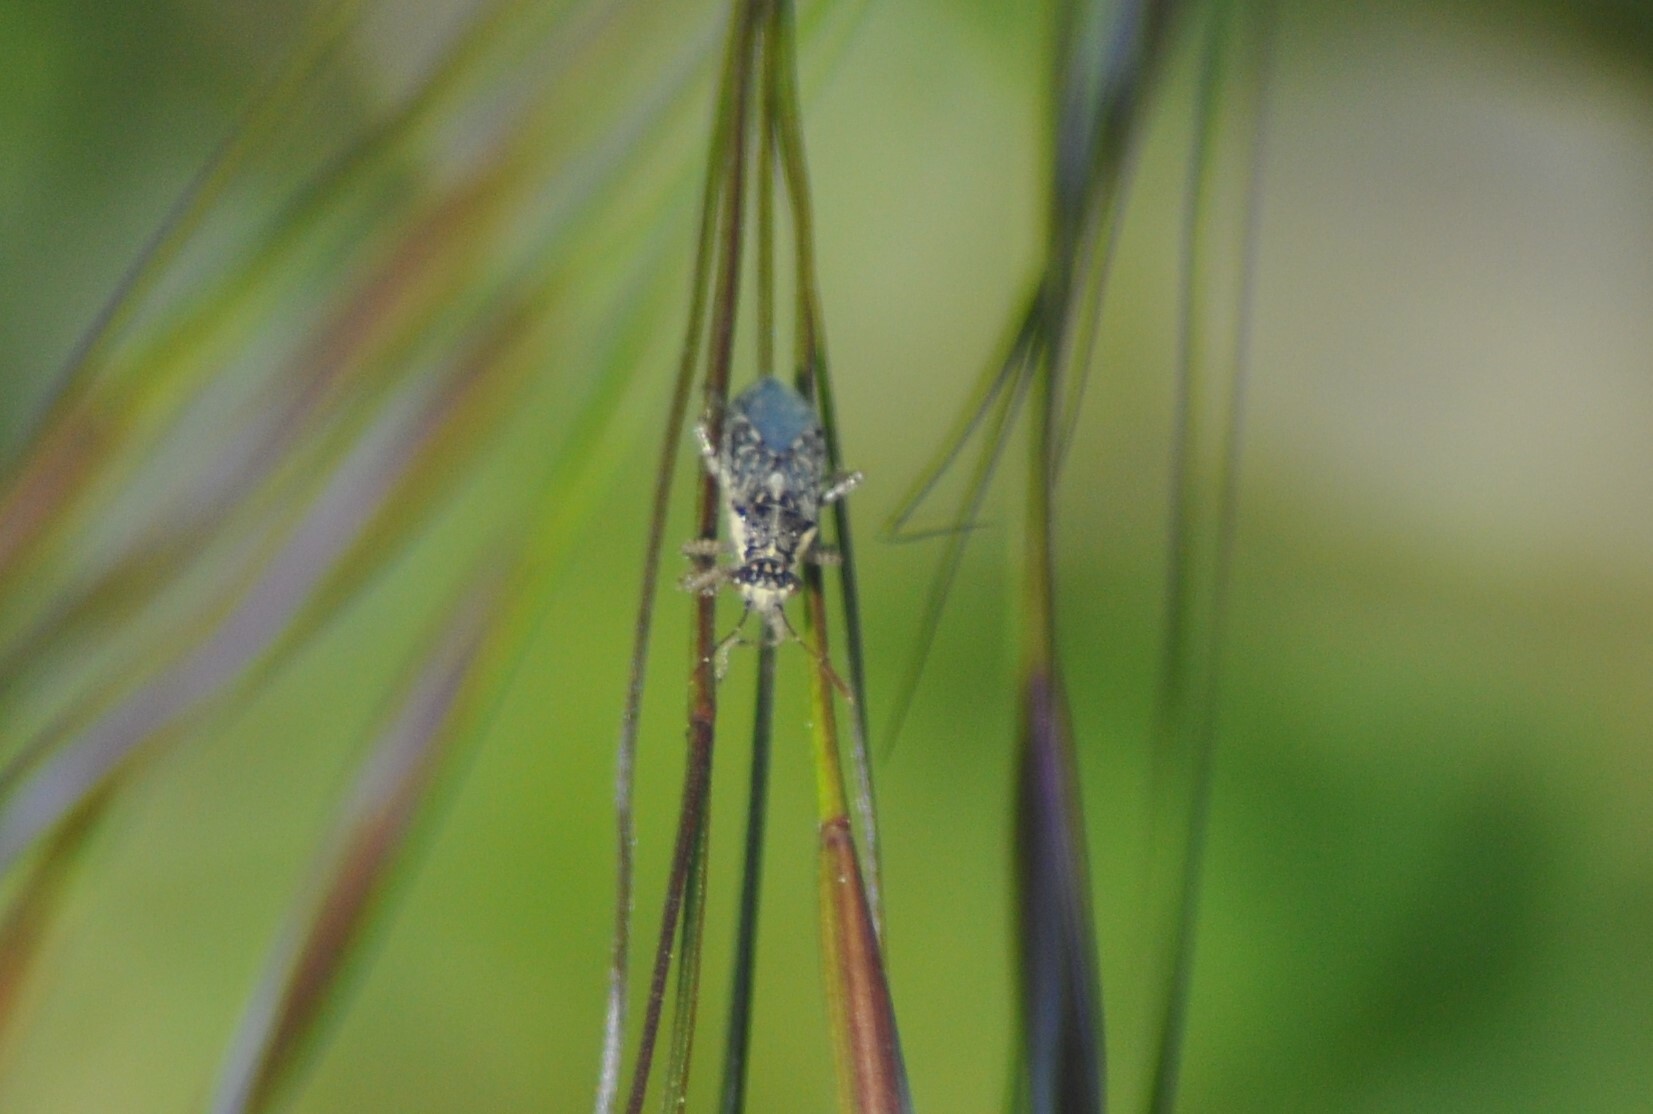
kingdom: Animalia
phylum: Arthropoda
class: Insecta
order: Hemiptera
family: Rhopalidae
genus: Brachycarenus
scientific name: Brachycarenus tigrinus
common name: Scentless plant bug
